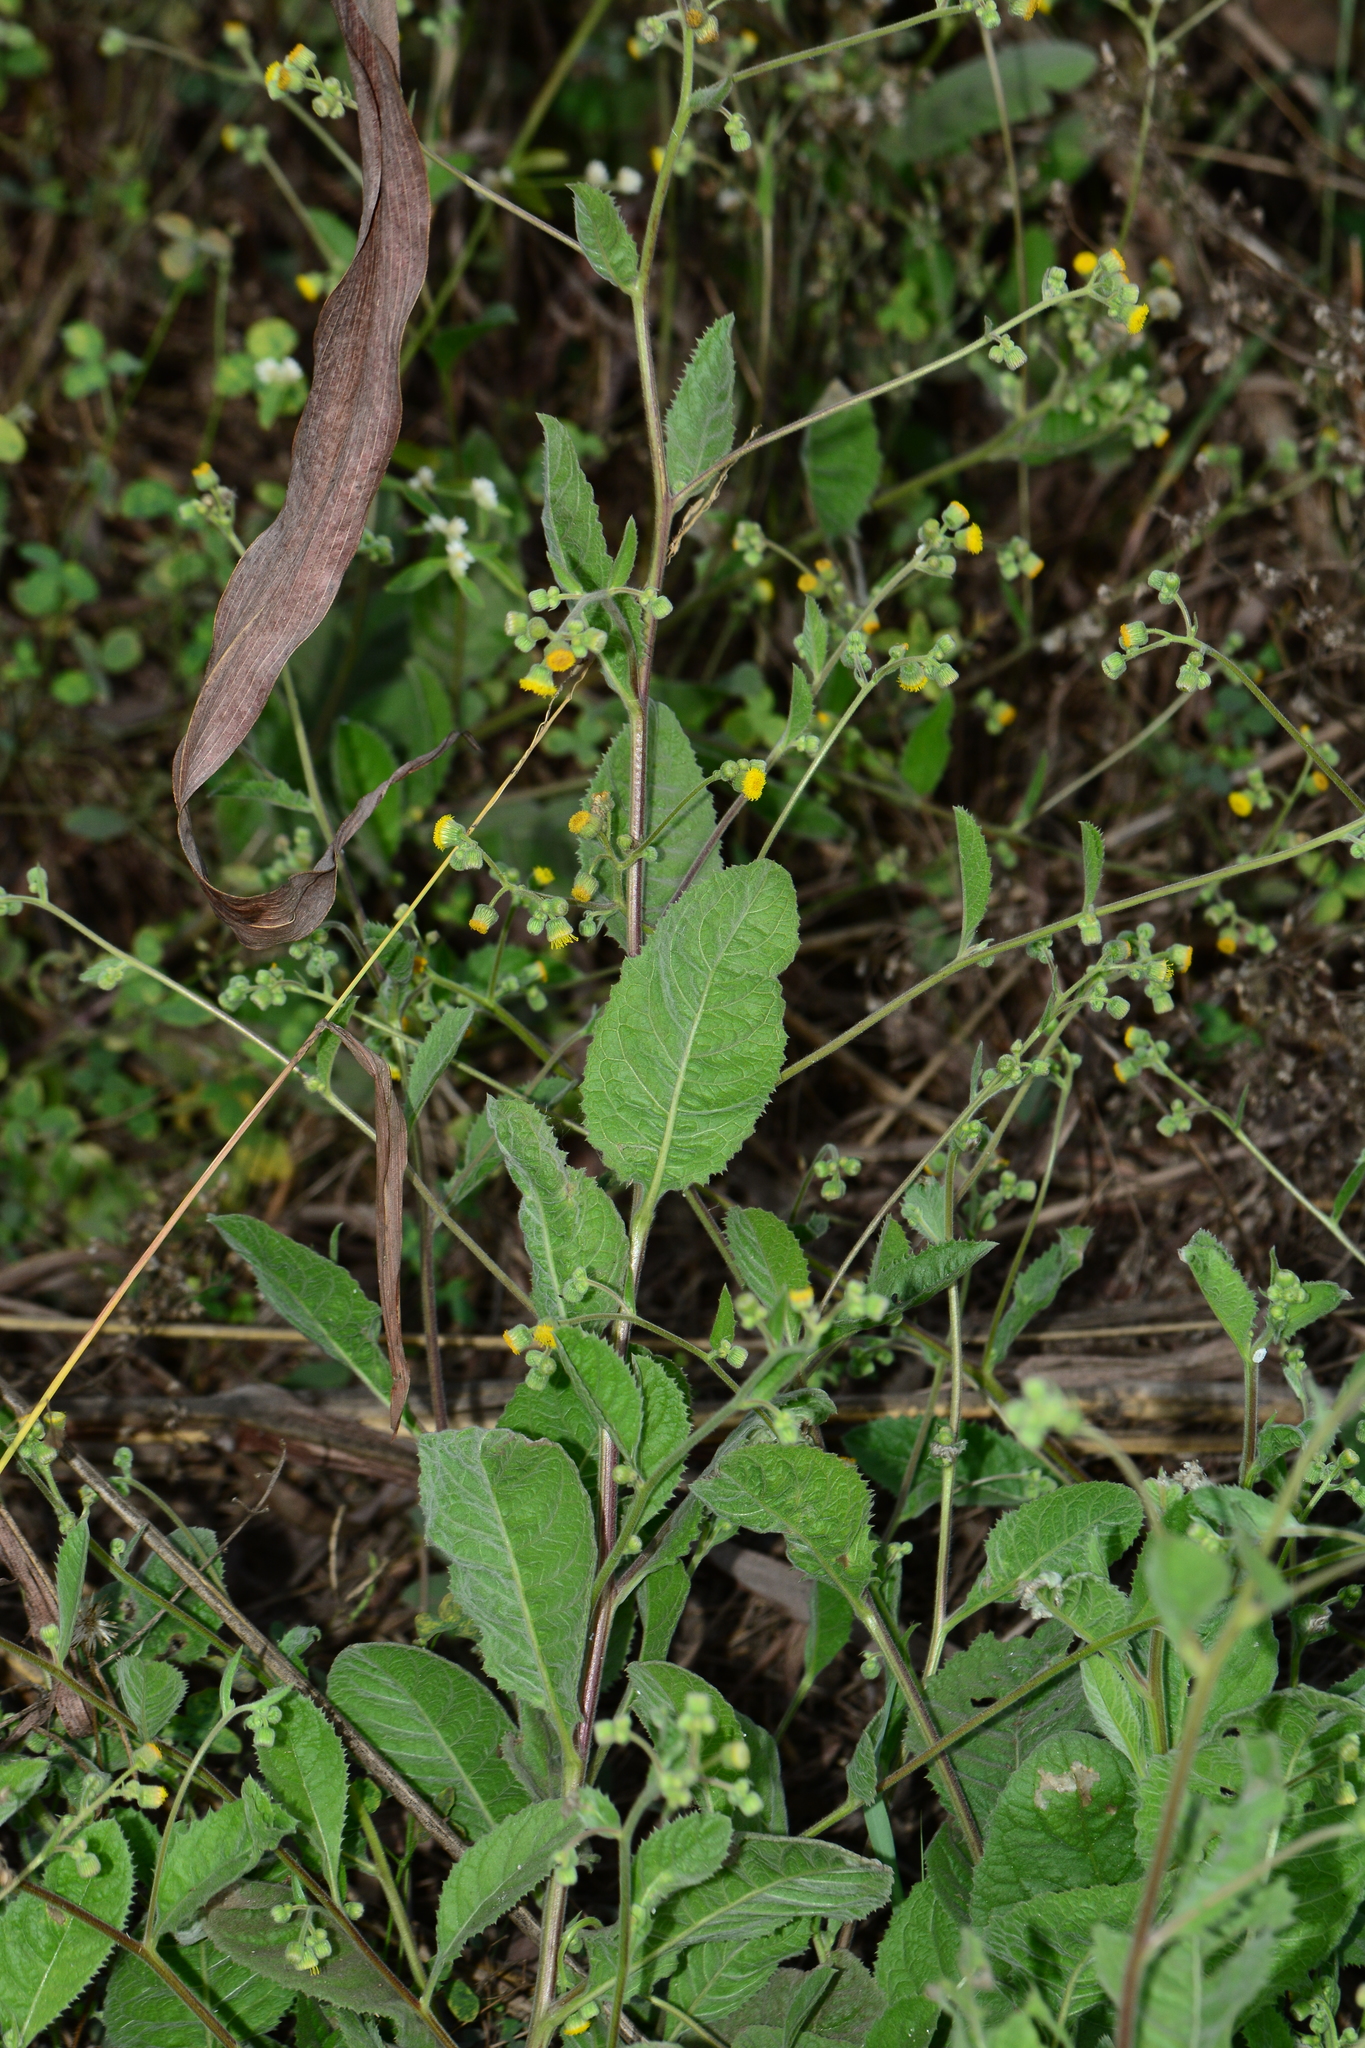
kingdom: Plantae
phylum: Tracheophyta
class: Magnoliopsida
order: Asterales
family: Asteraceae
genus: Blumea
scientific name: Blumea eriantha
